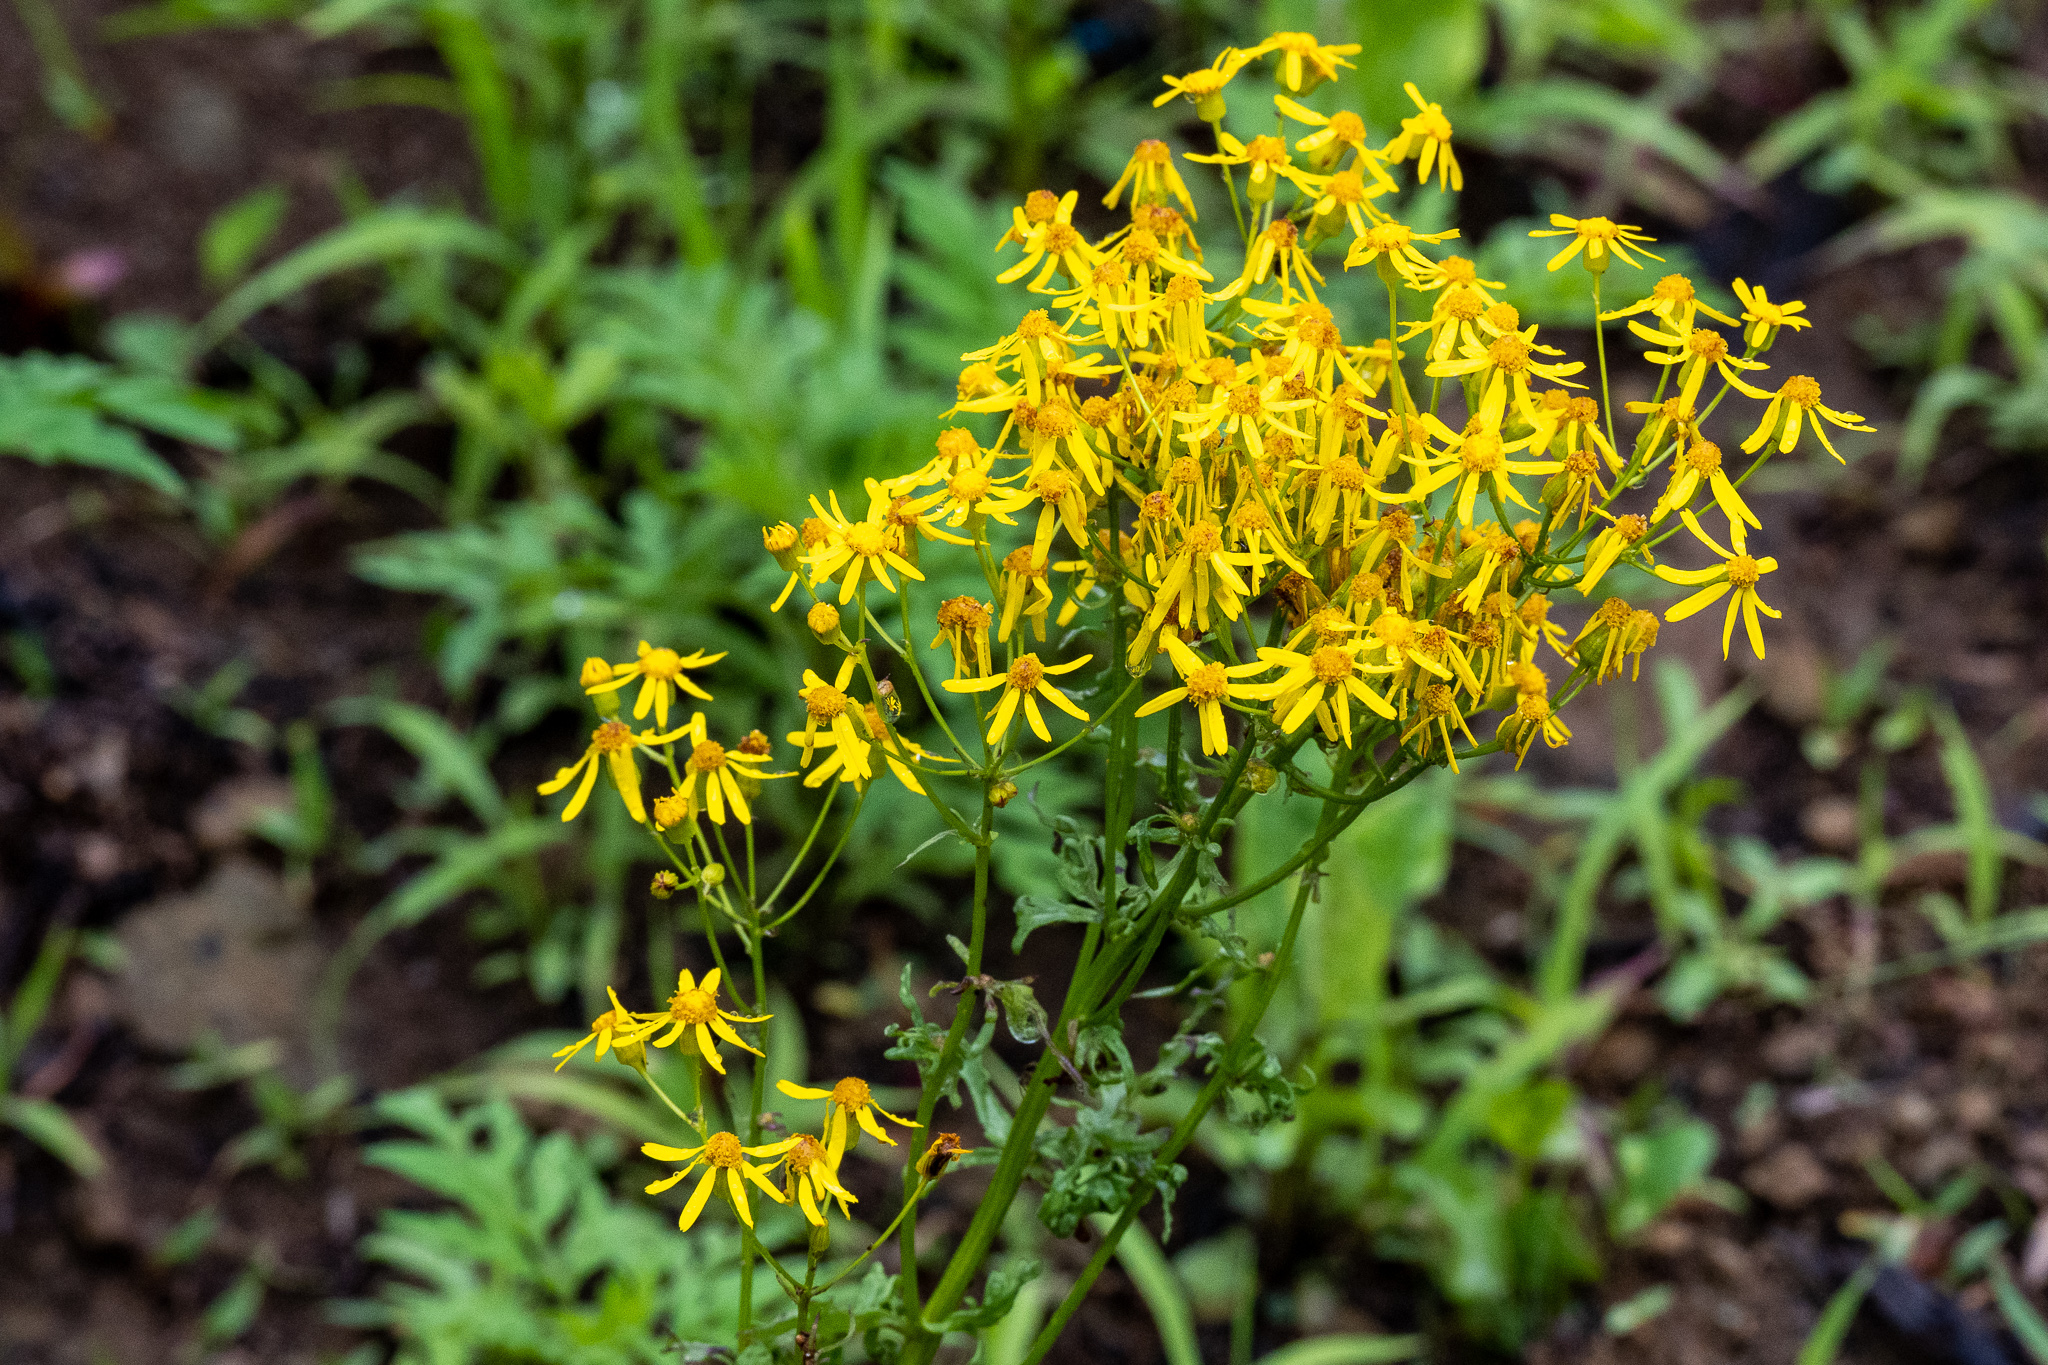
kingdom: Plantae
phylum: Tracheophyta
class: Magnoliopsida
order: Asterales
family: Asteraceae
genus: Packera
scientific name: Packera anonyma
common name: Small ragwort
